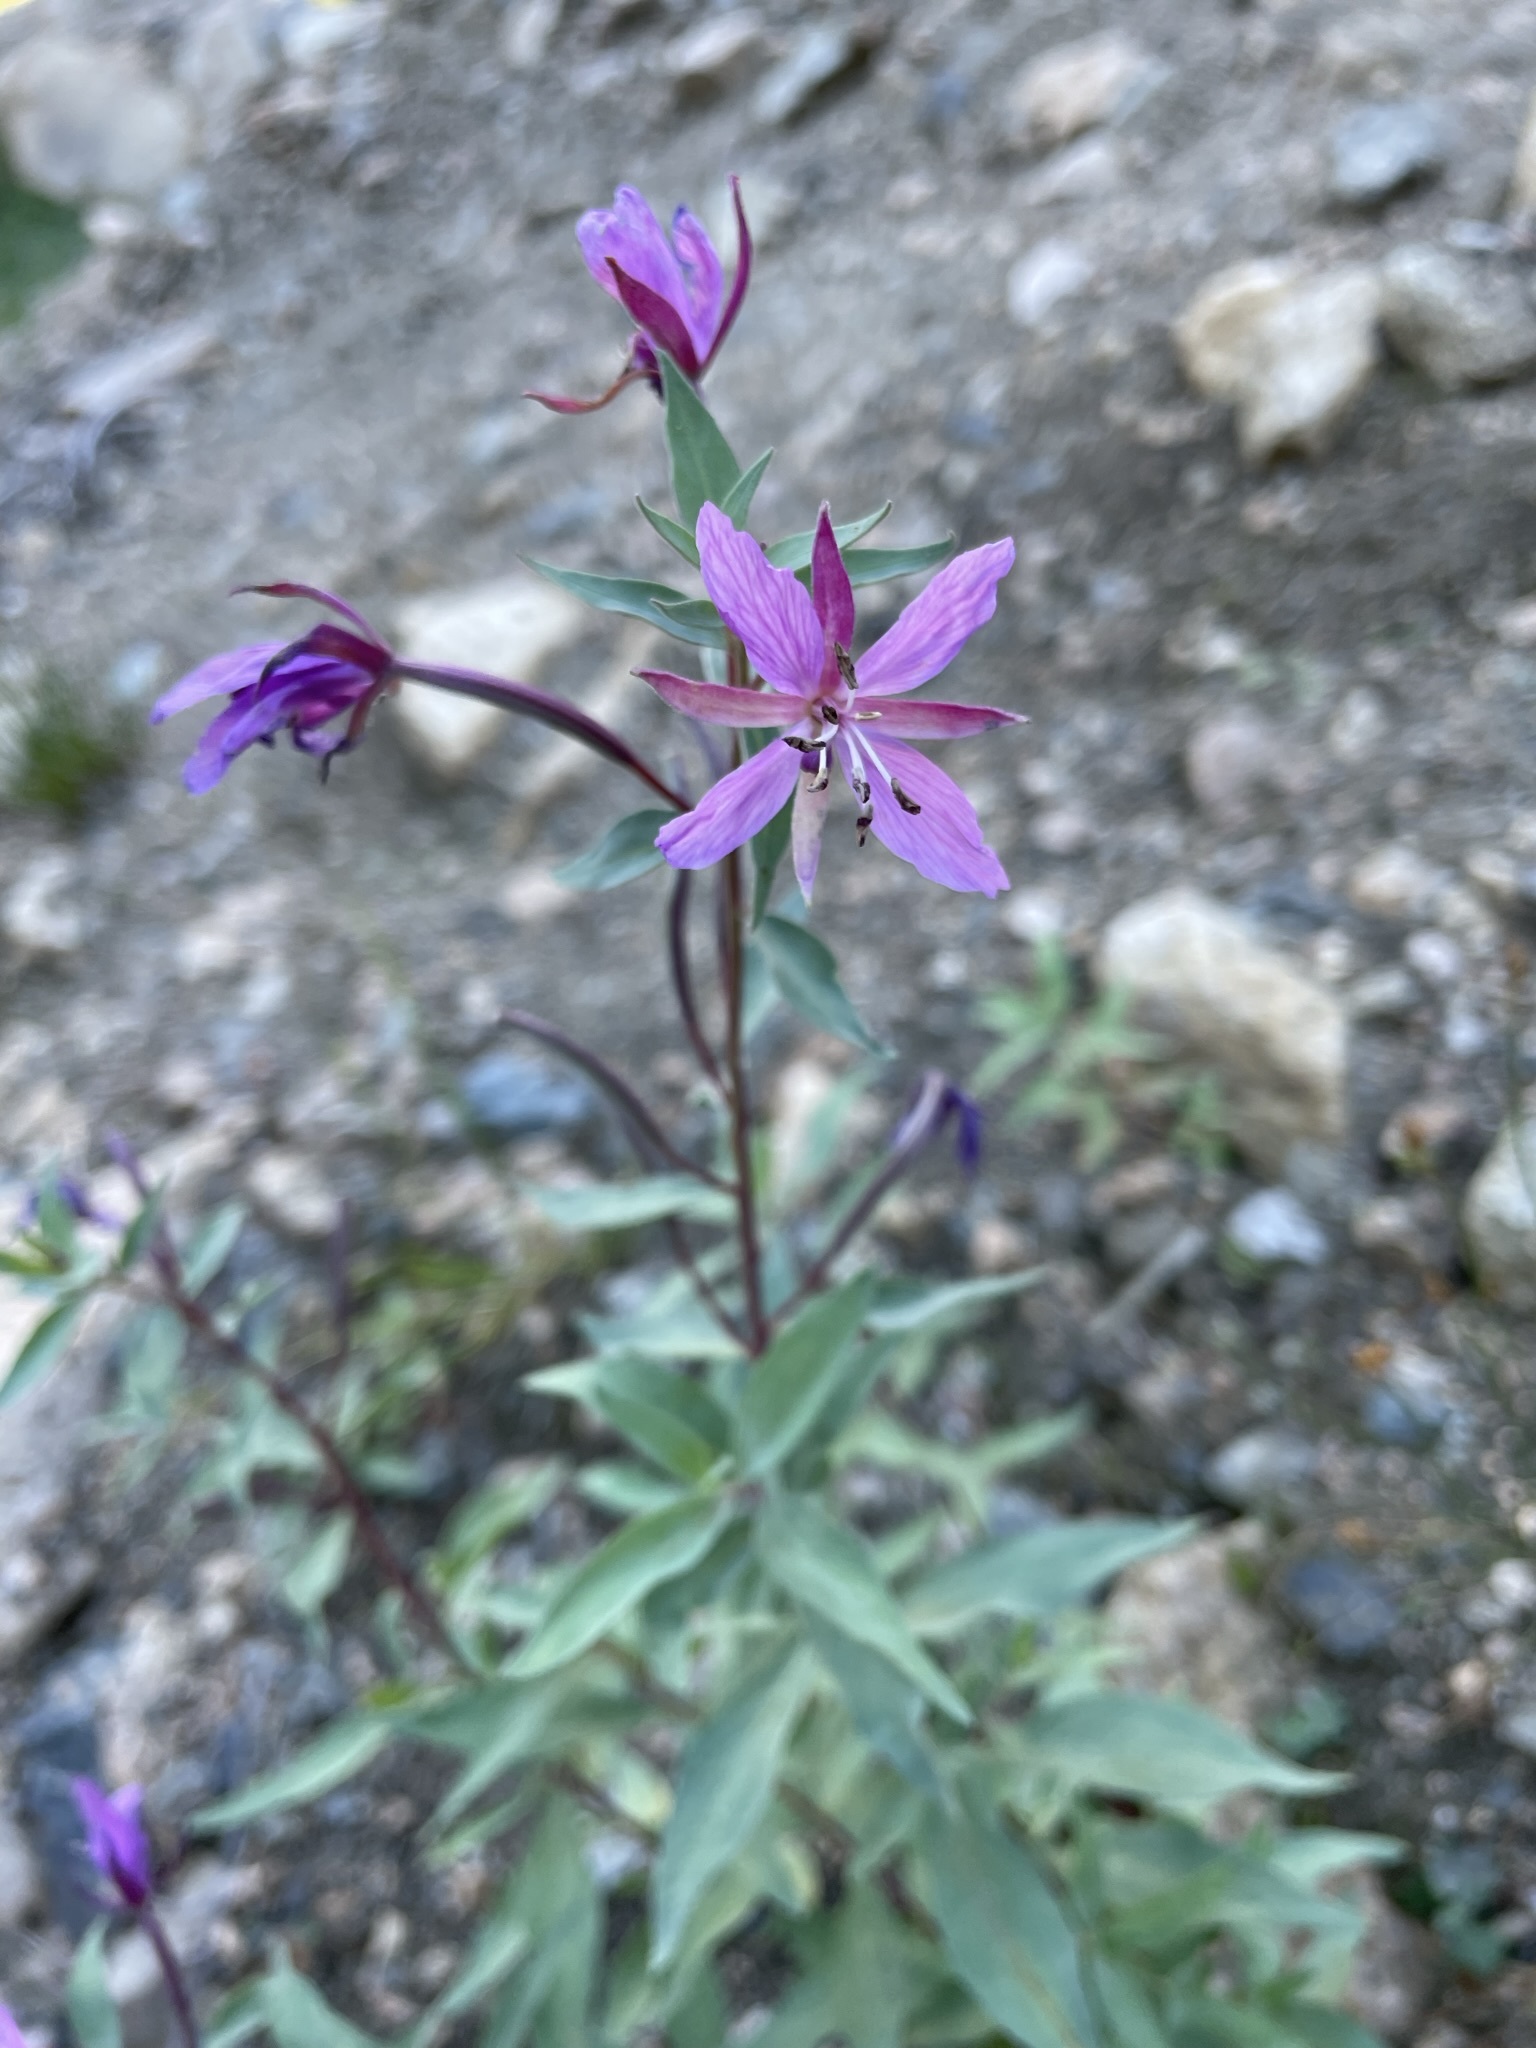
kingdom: Plantae
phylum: Tracheophyta
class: Magnoliopsida
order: Myrtales
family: Onagraceae
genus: Chamaenerion
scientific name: Chamaenerion latifolium
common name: Dwarf fireweed
